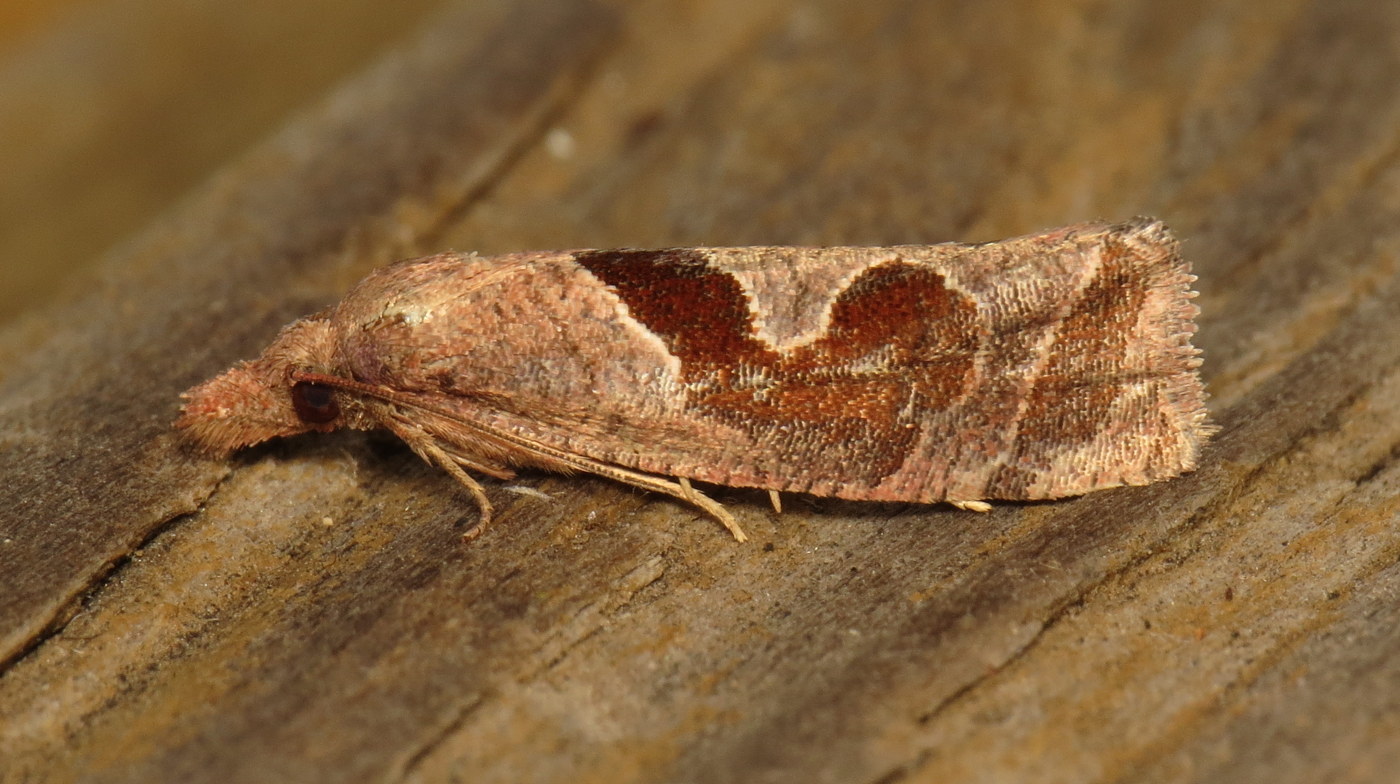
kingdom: Animalia
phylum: Arthropoda
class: Insecta
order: Lepidoptera
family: Tortricidae
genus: Pelochrista
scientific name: Pelochrista similiana
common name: Similar eucosma
